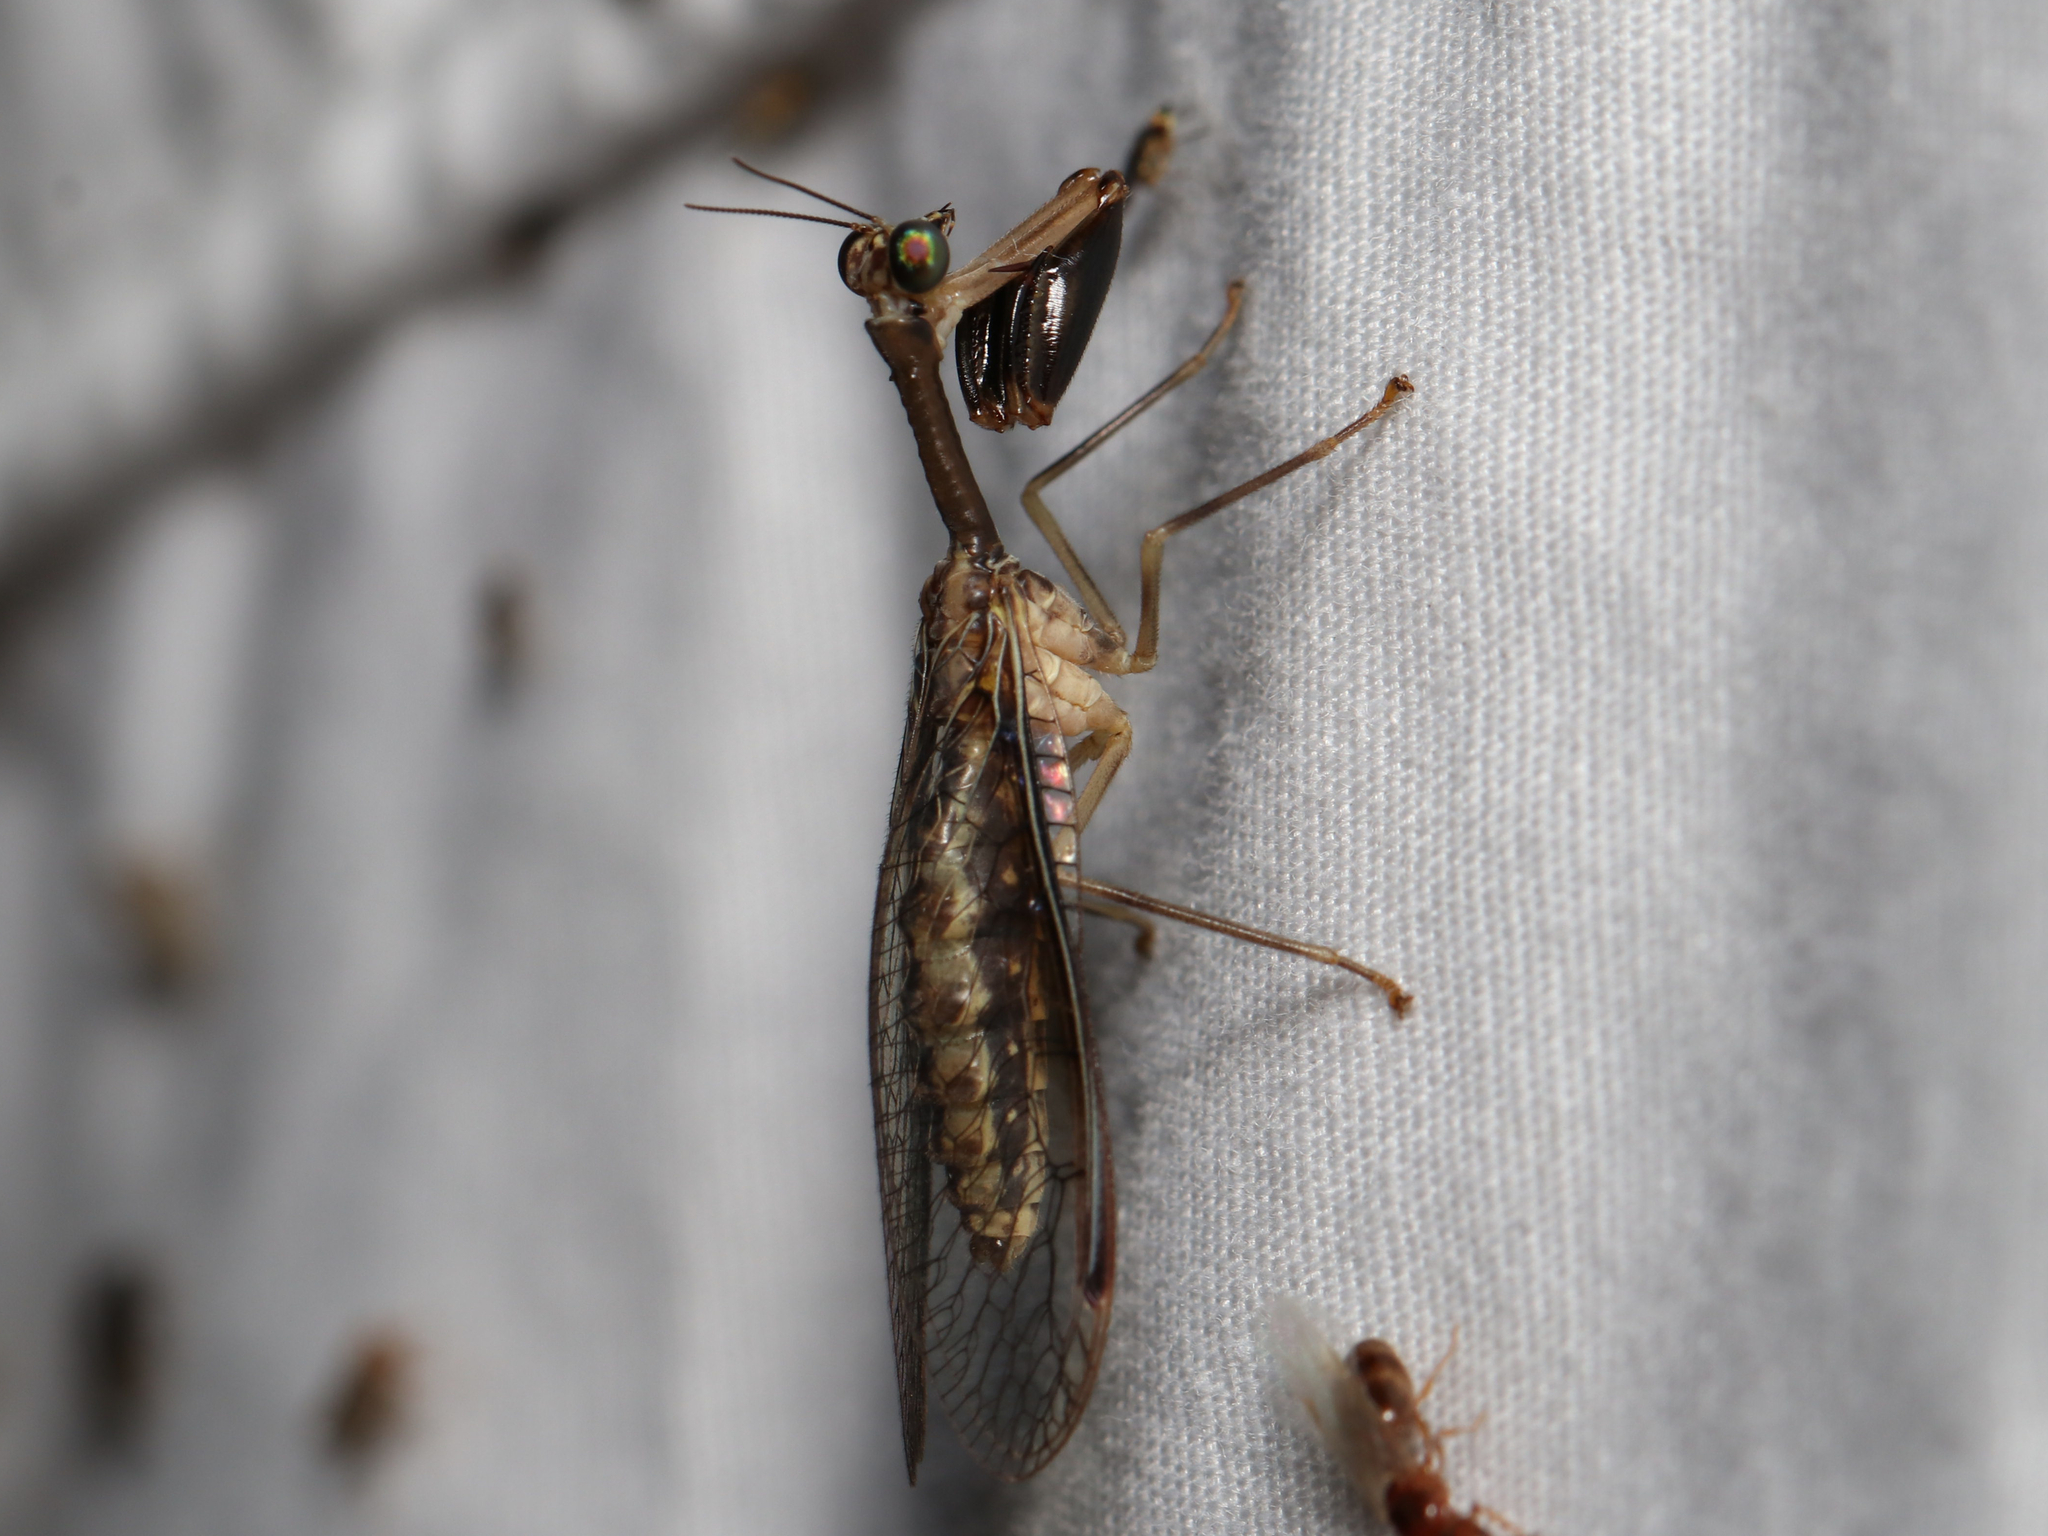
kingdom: Animalia
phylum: Arthropoda
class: Insecta
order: Neuroptera
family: Mantispidae
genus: Dicromantispa
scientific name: Dicromantispa sayi
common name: Say's mantidfly
